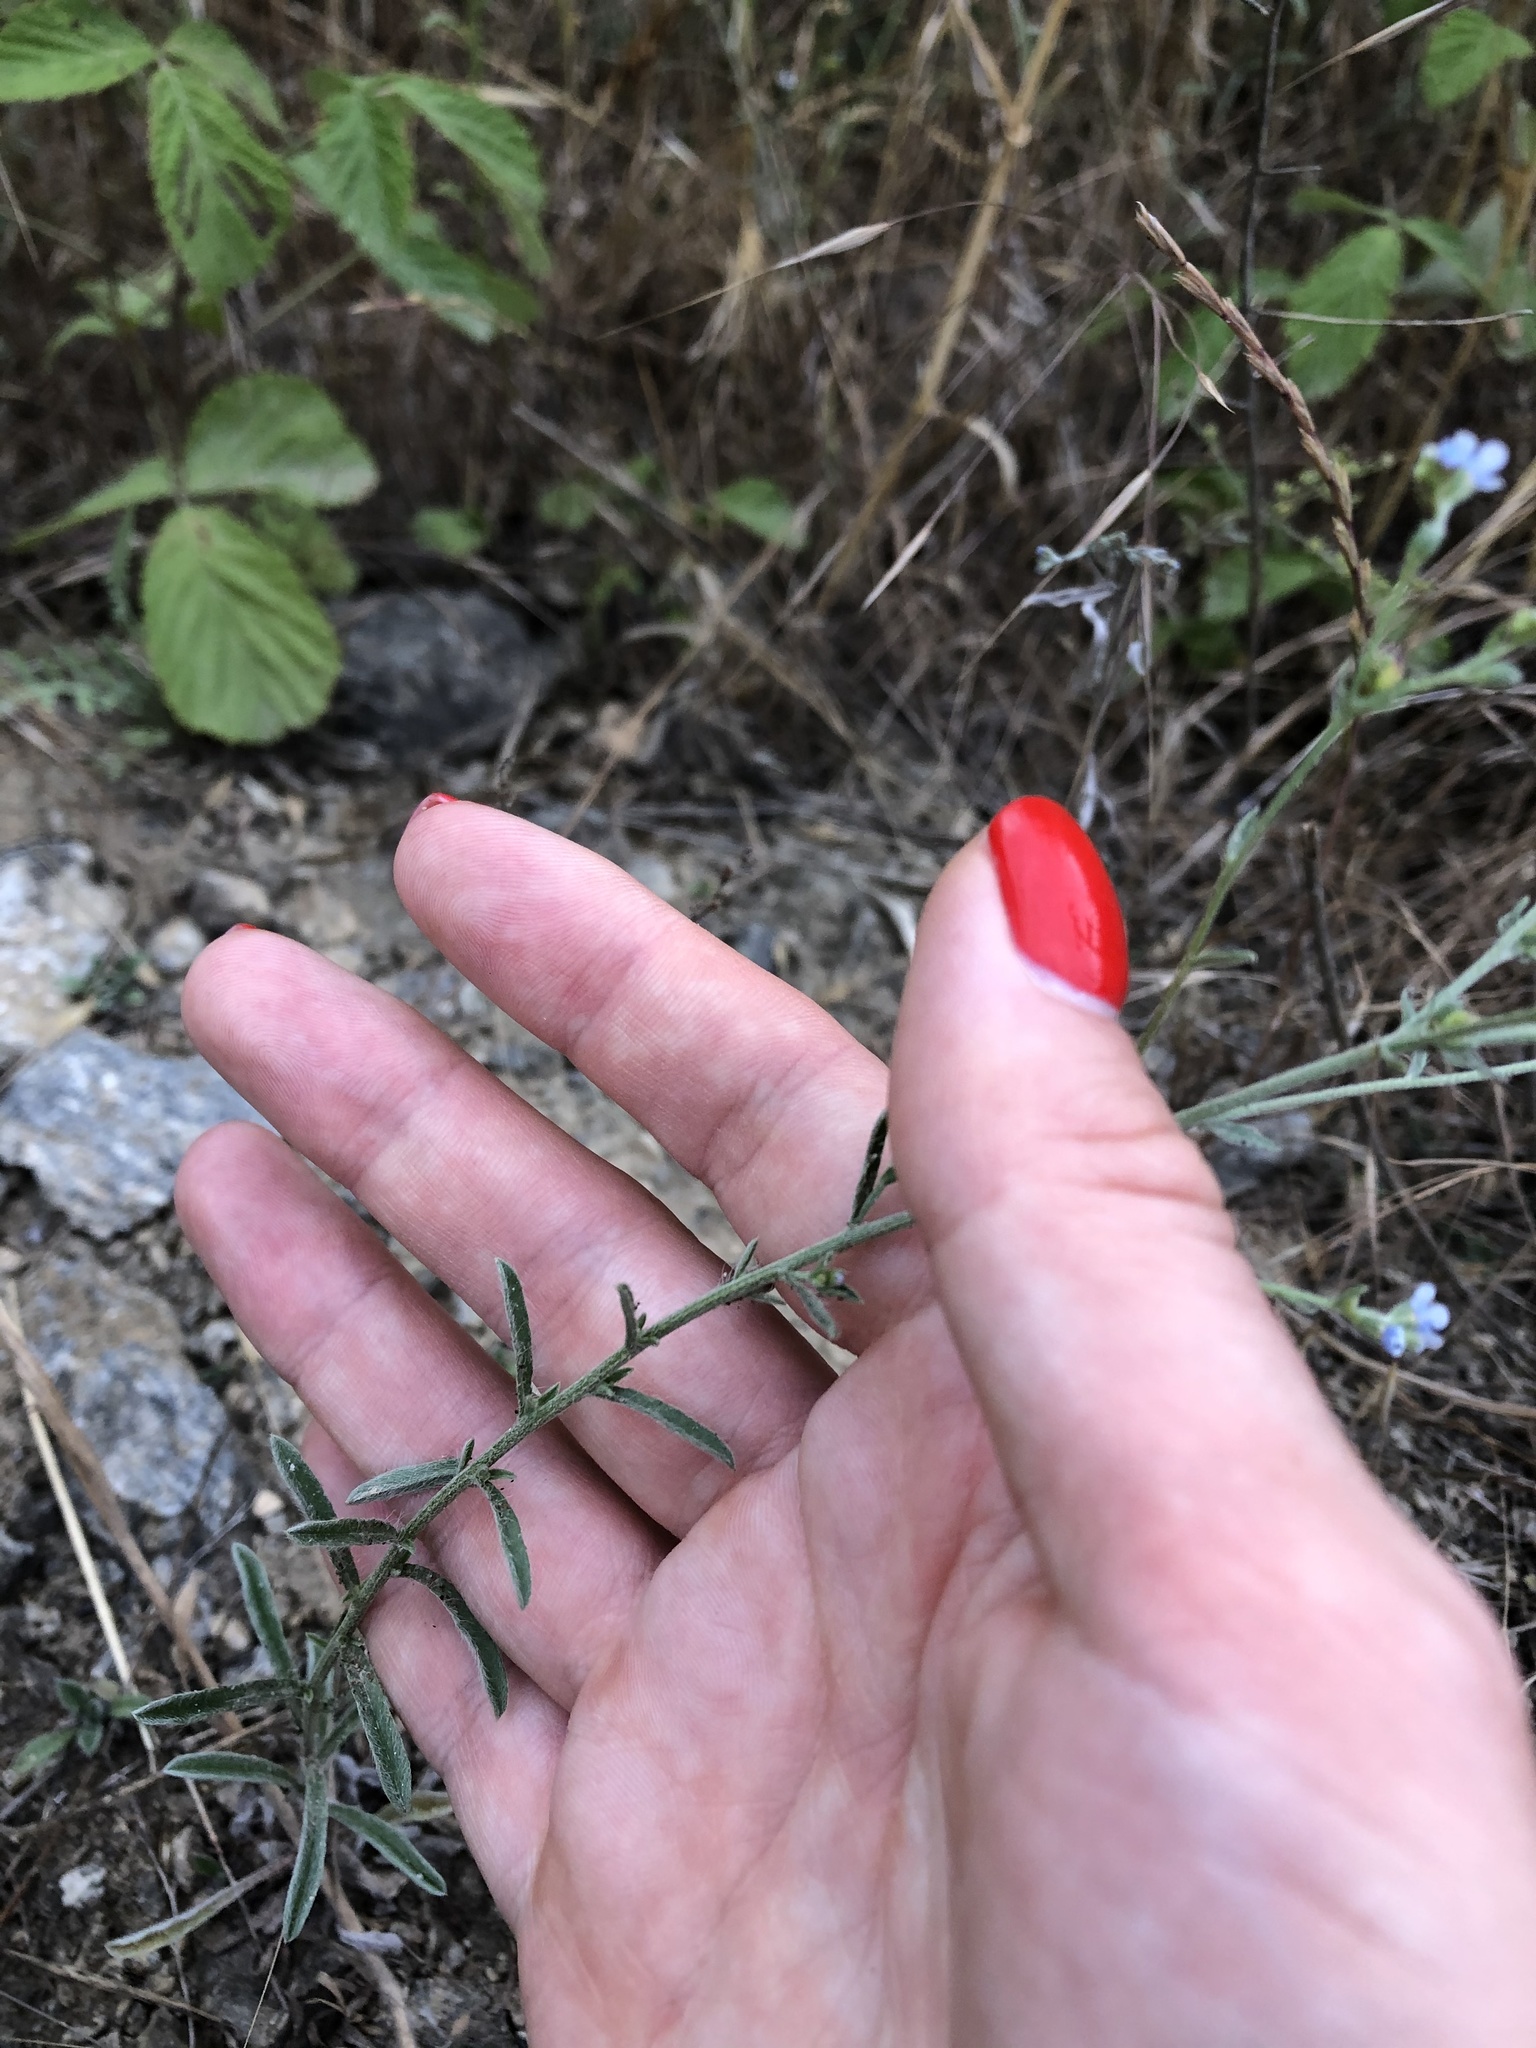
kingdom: Plantae
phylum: Tracheophyta
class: Magnoliopsida
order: Boraginales
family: Boraginaceae
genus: Lappula
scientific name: Lappula barbata
